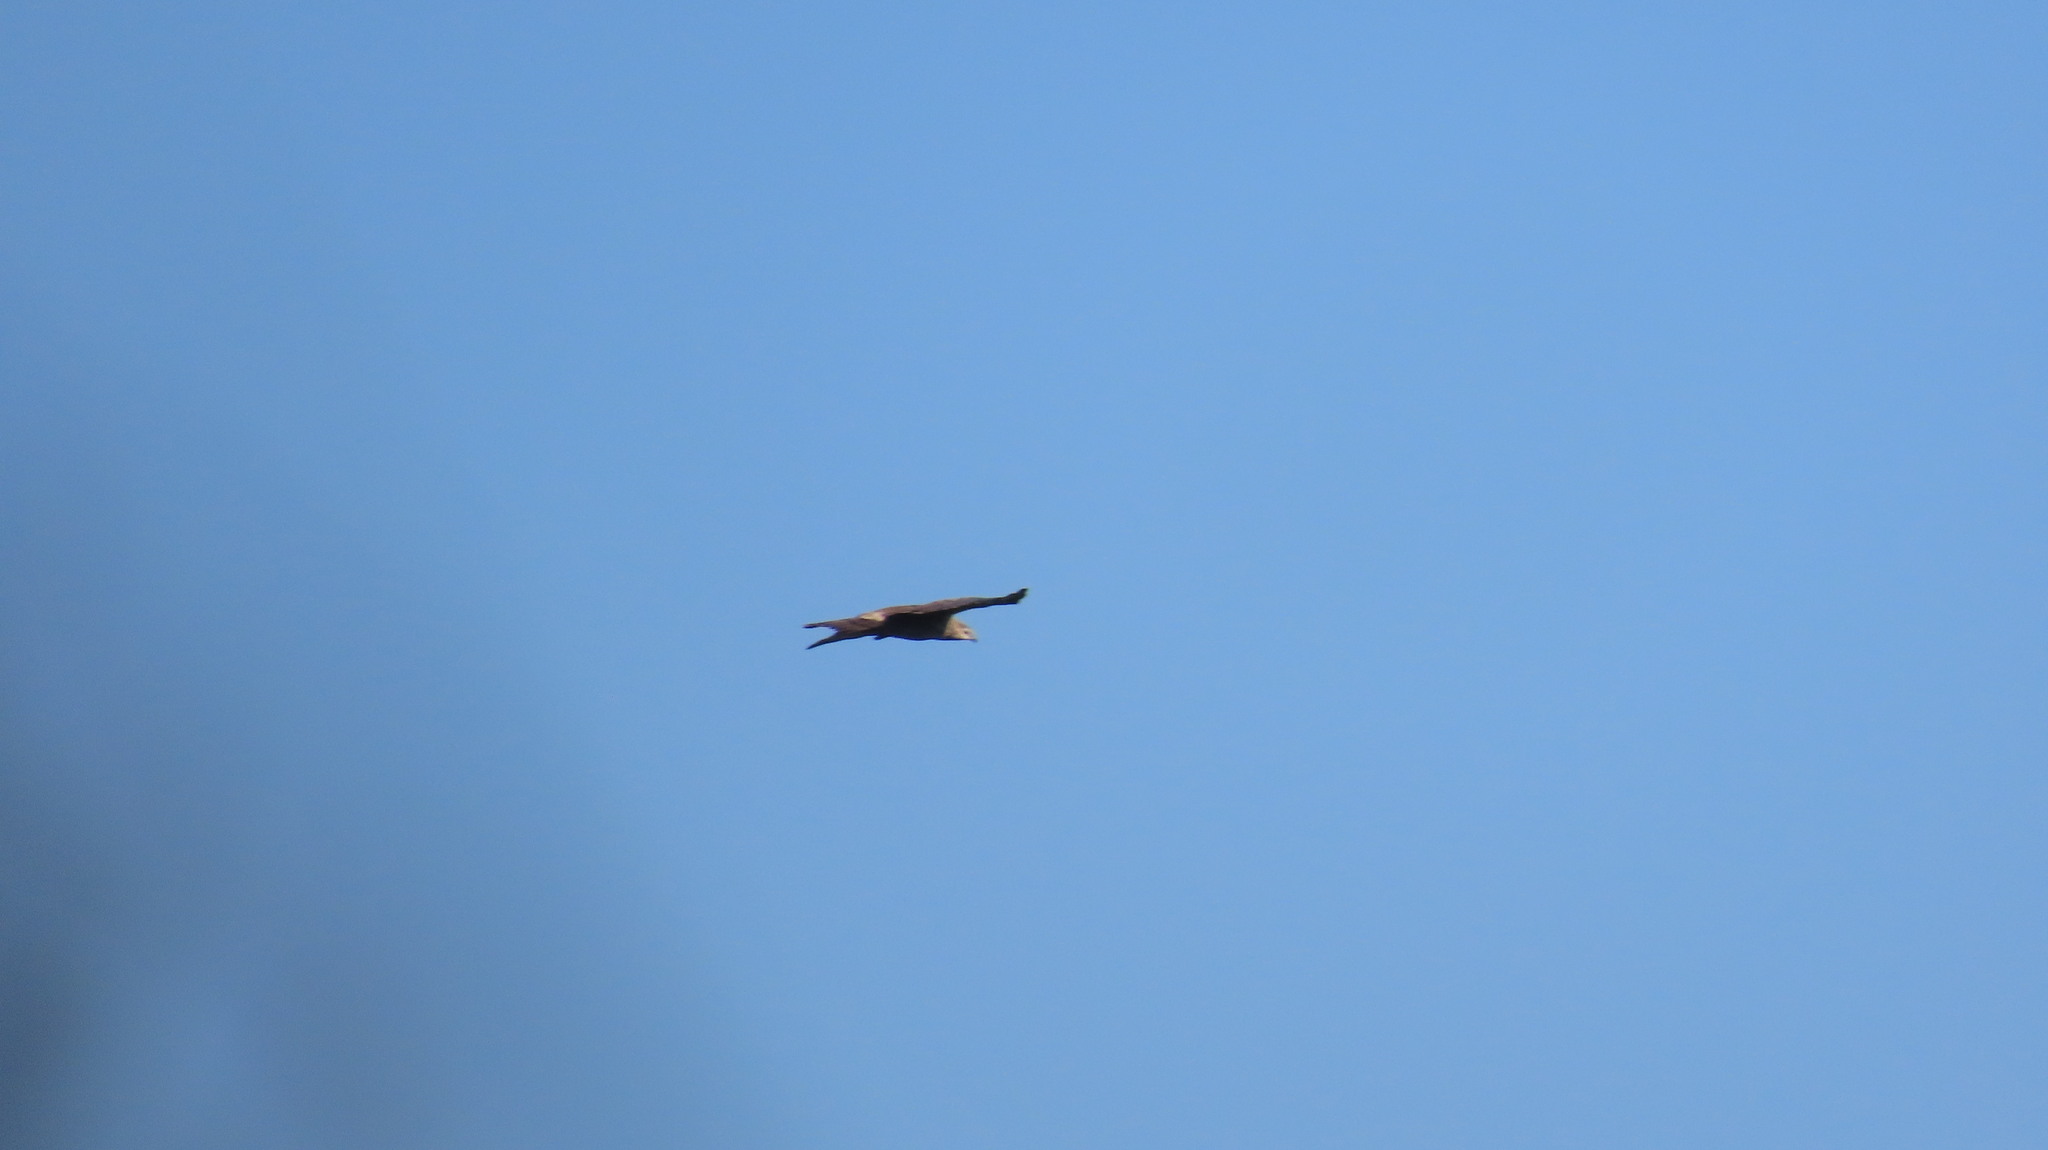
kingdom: Animalia
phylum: Chordata
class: Aves
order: Accipitriformes
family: Accipitridae
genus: Pernis
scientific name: Pernis ptilorhynchus
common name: Crested honey buzzard
